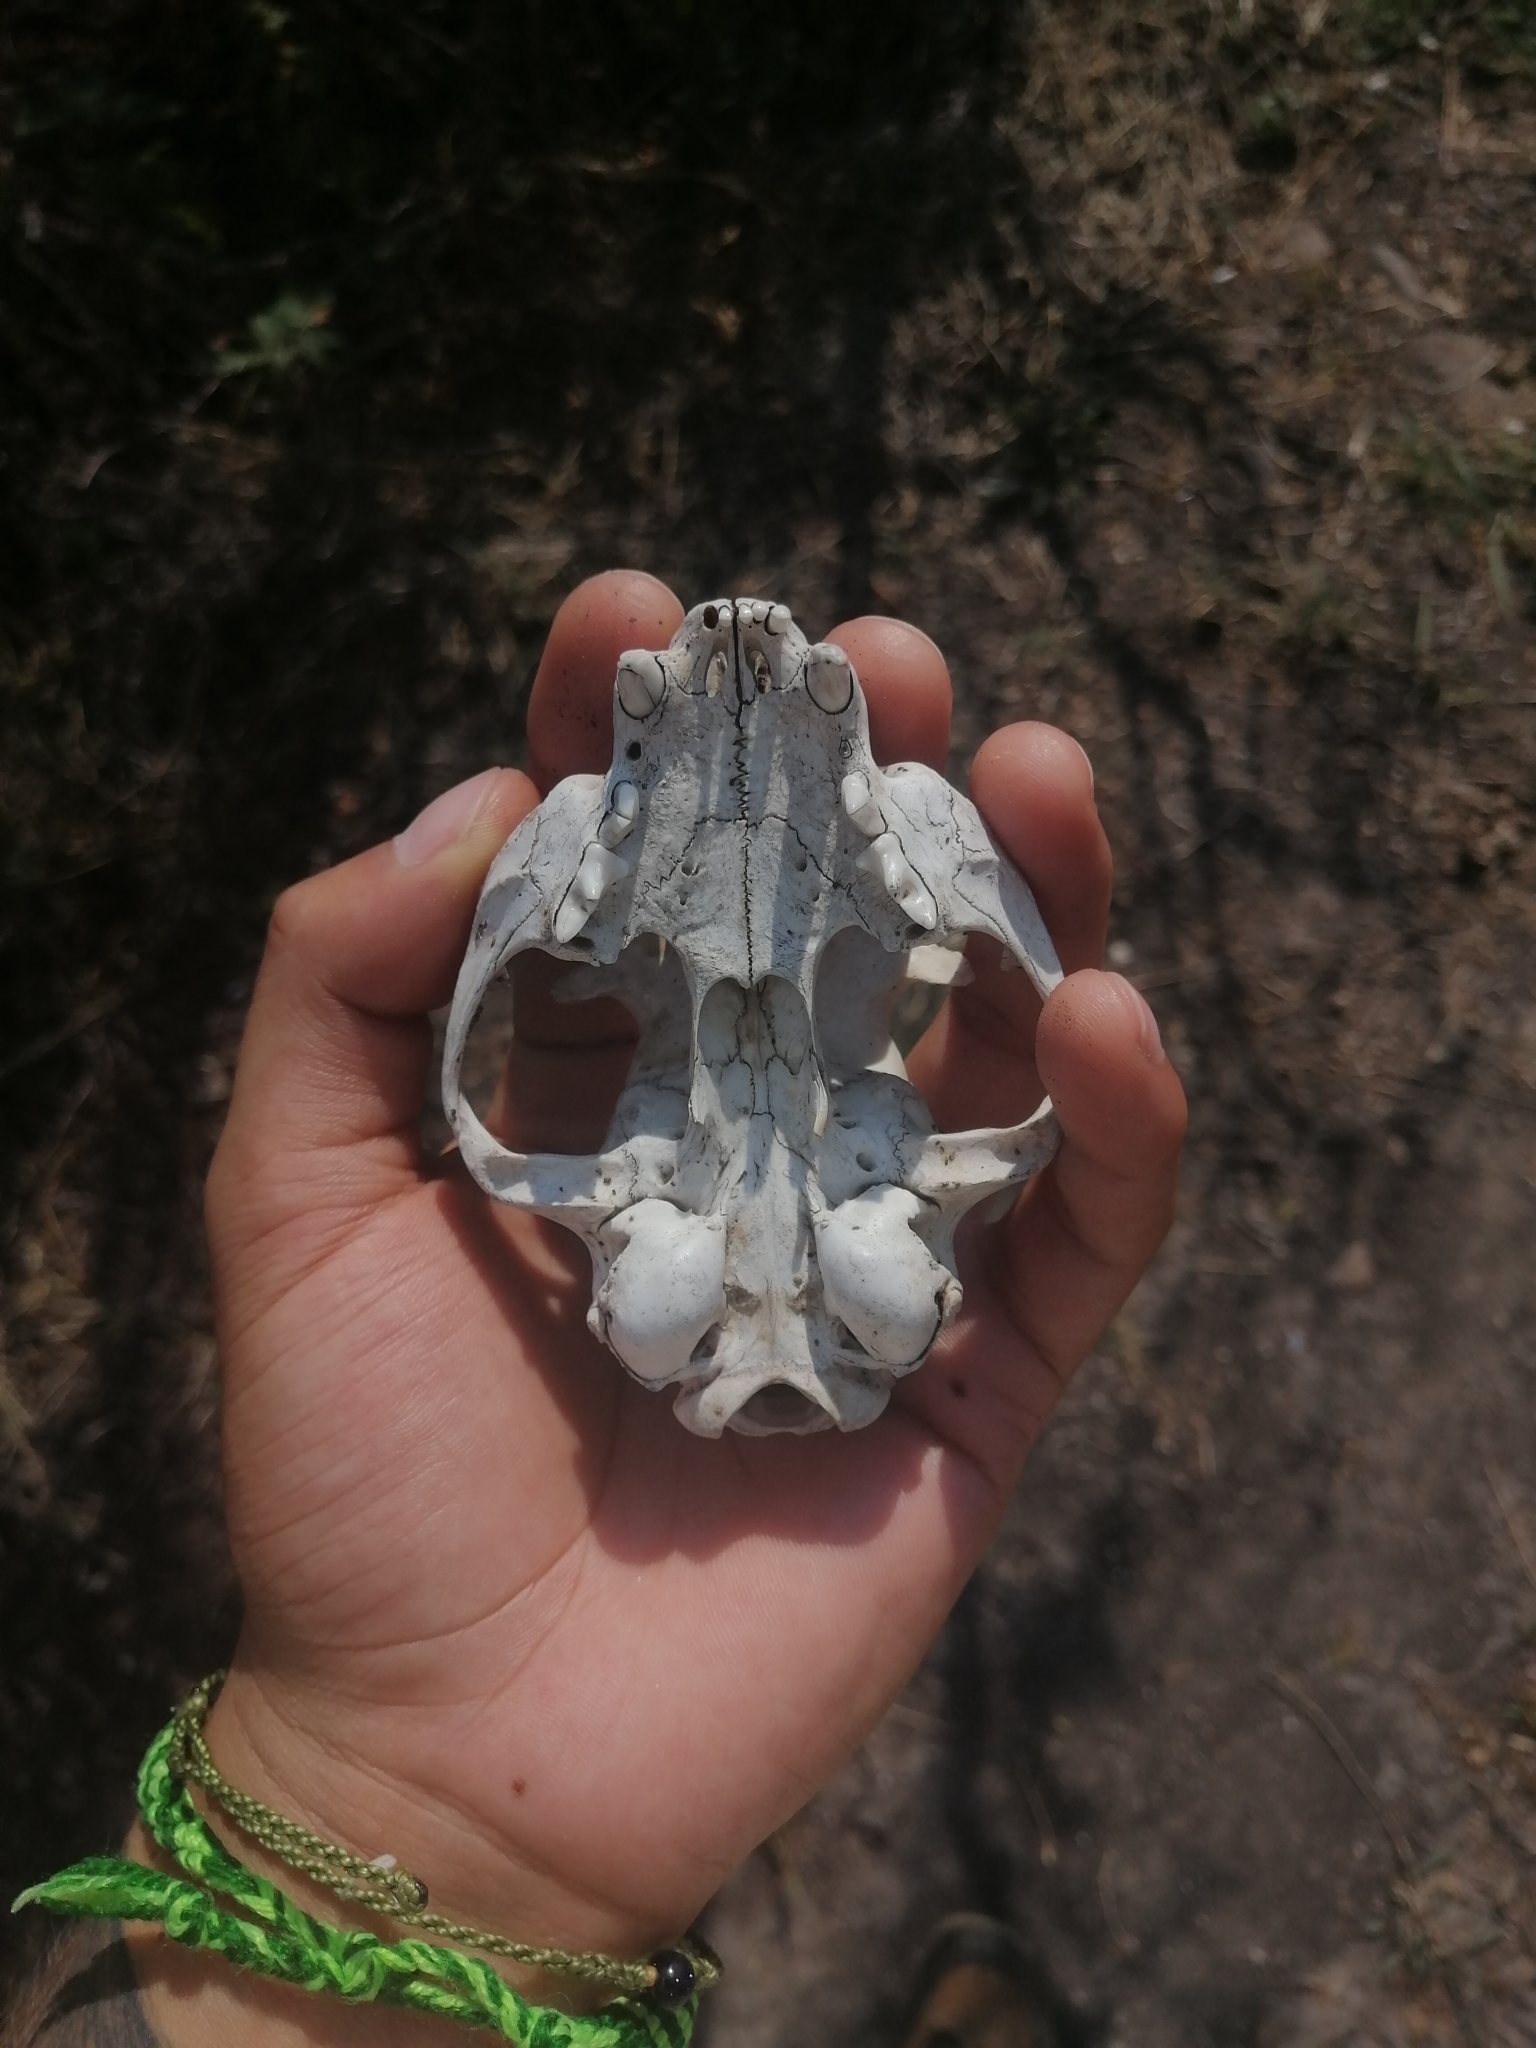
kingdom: Animalia
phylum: Chordata
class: Mammalia
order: Carnivora
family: Felidae
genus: Felis
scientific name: Felis catus
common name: Domestic cat
